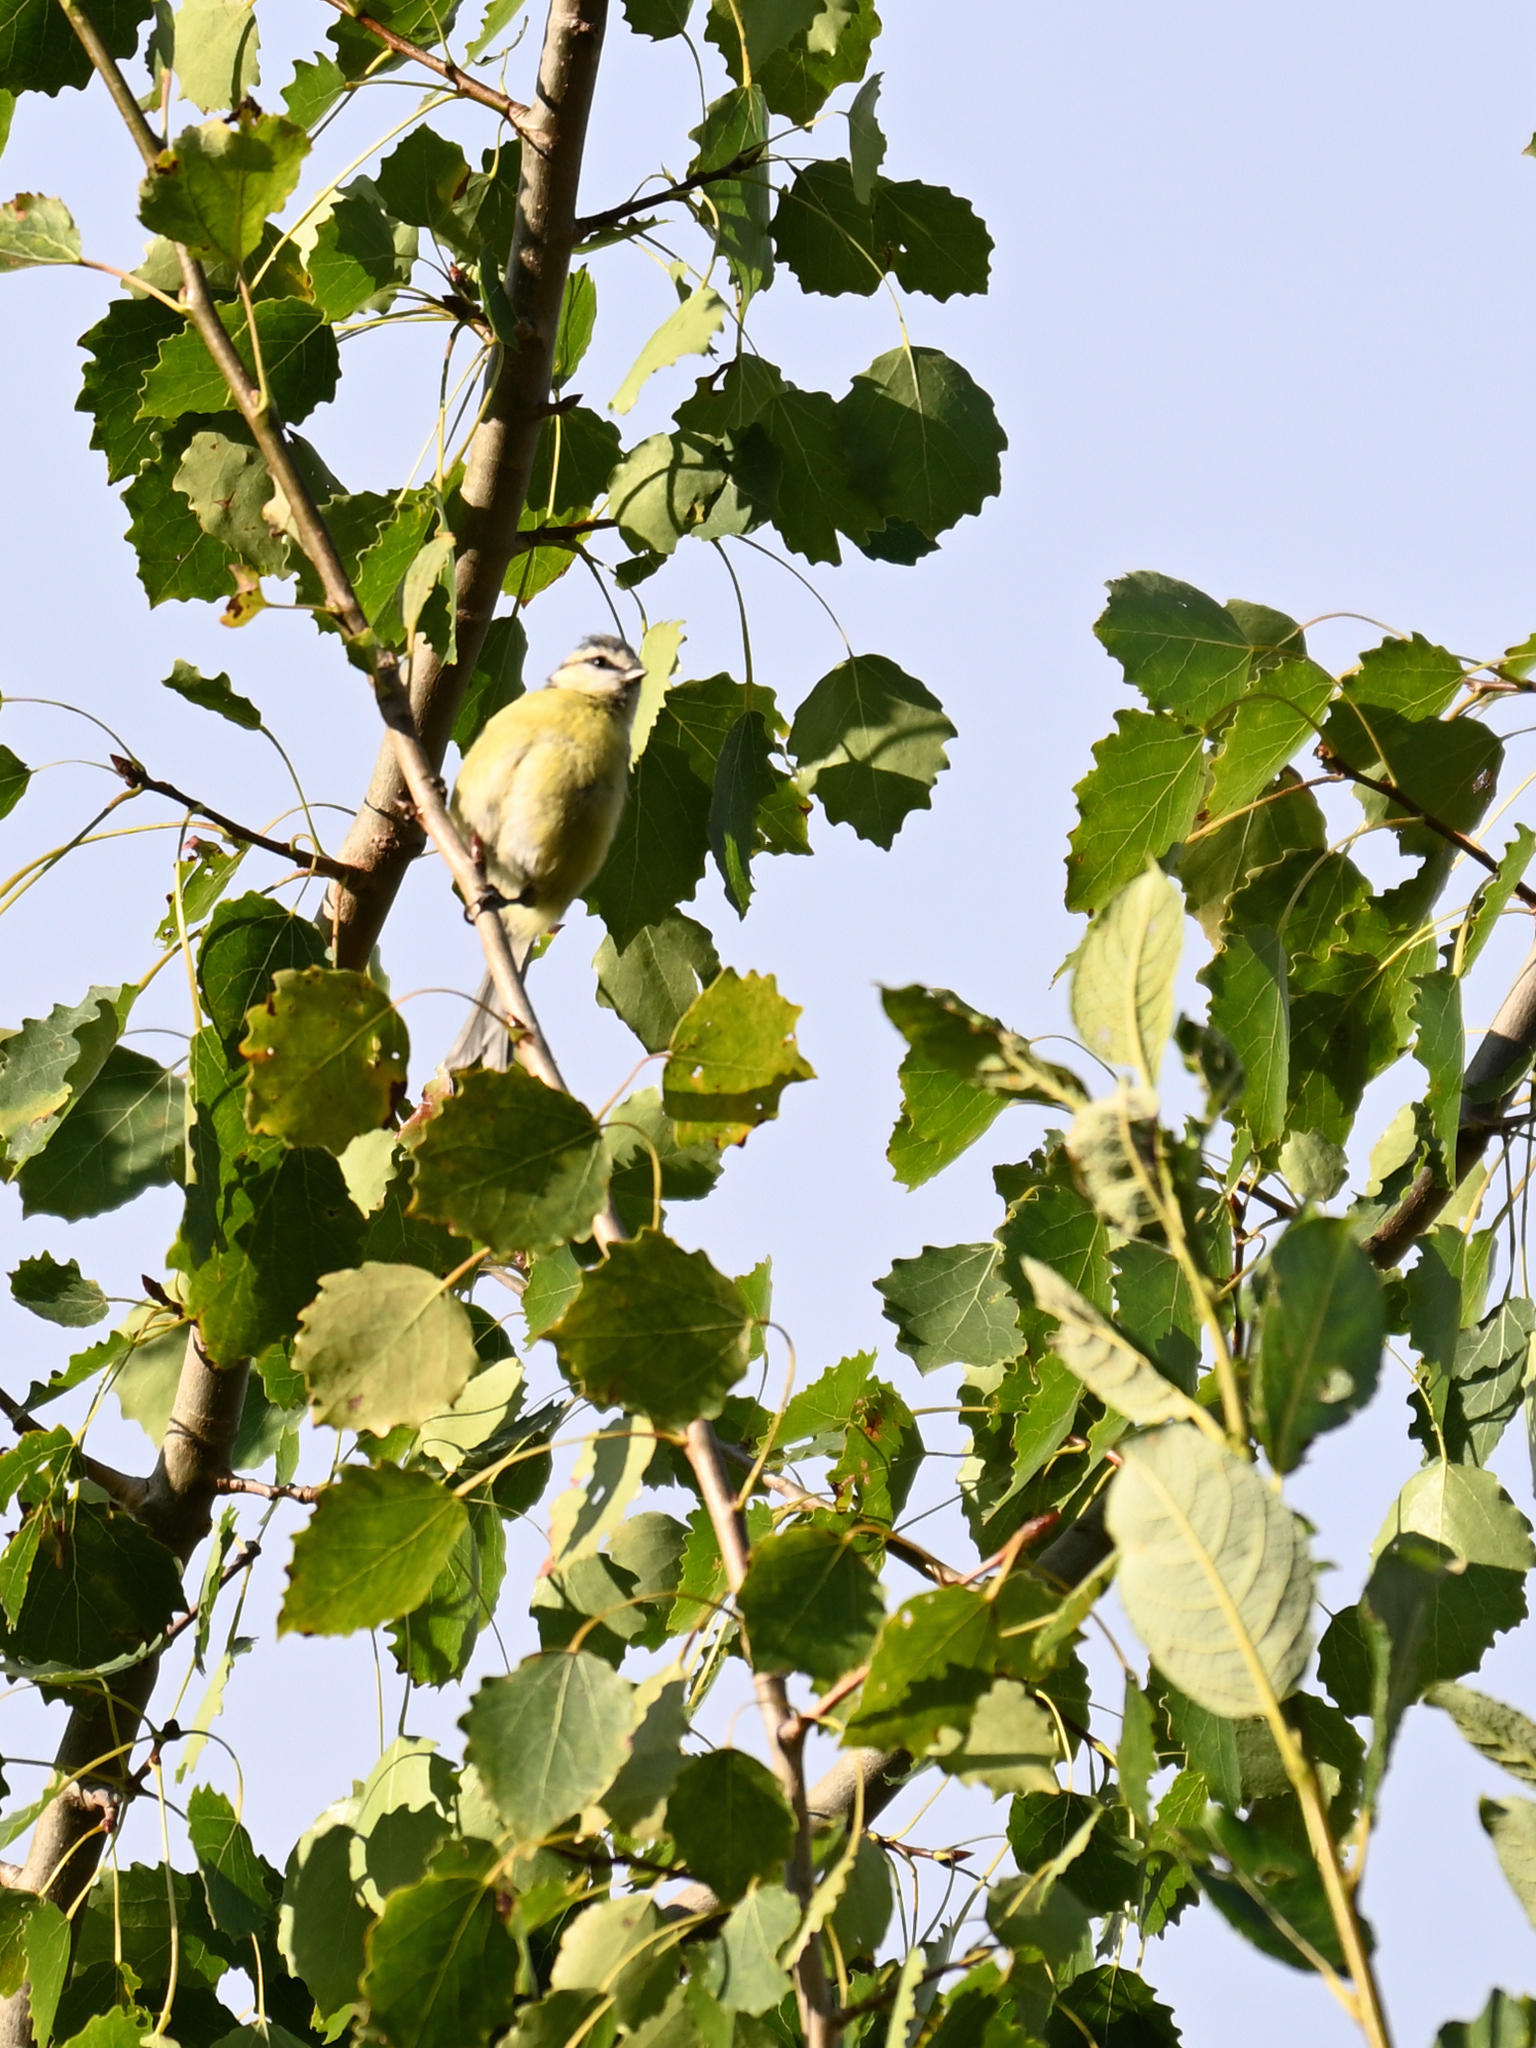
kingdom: Animalia
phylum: Chordata
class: Aves
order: Passeriformes
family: Paridae
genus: Cyanistes
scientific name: Cyanistes caeruleus
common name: Eurasian blue tit
